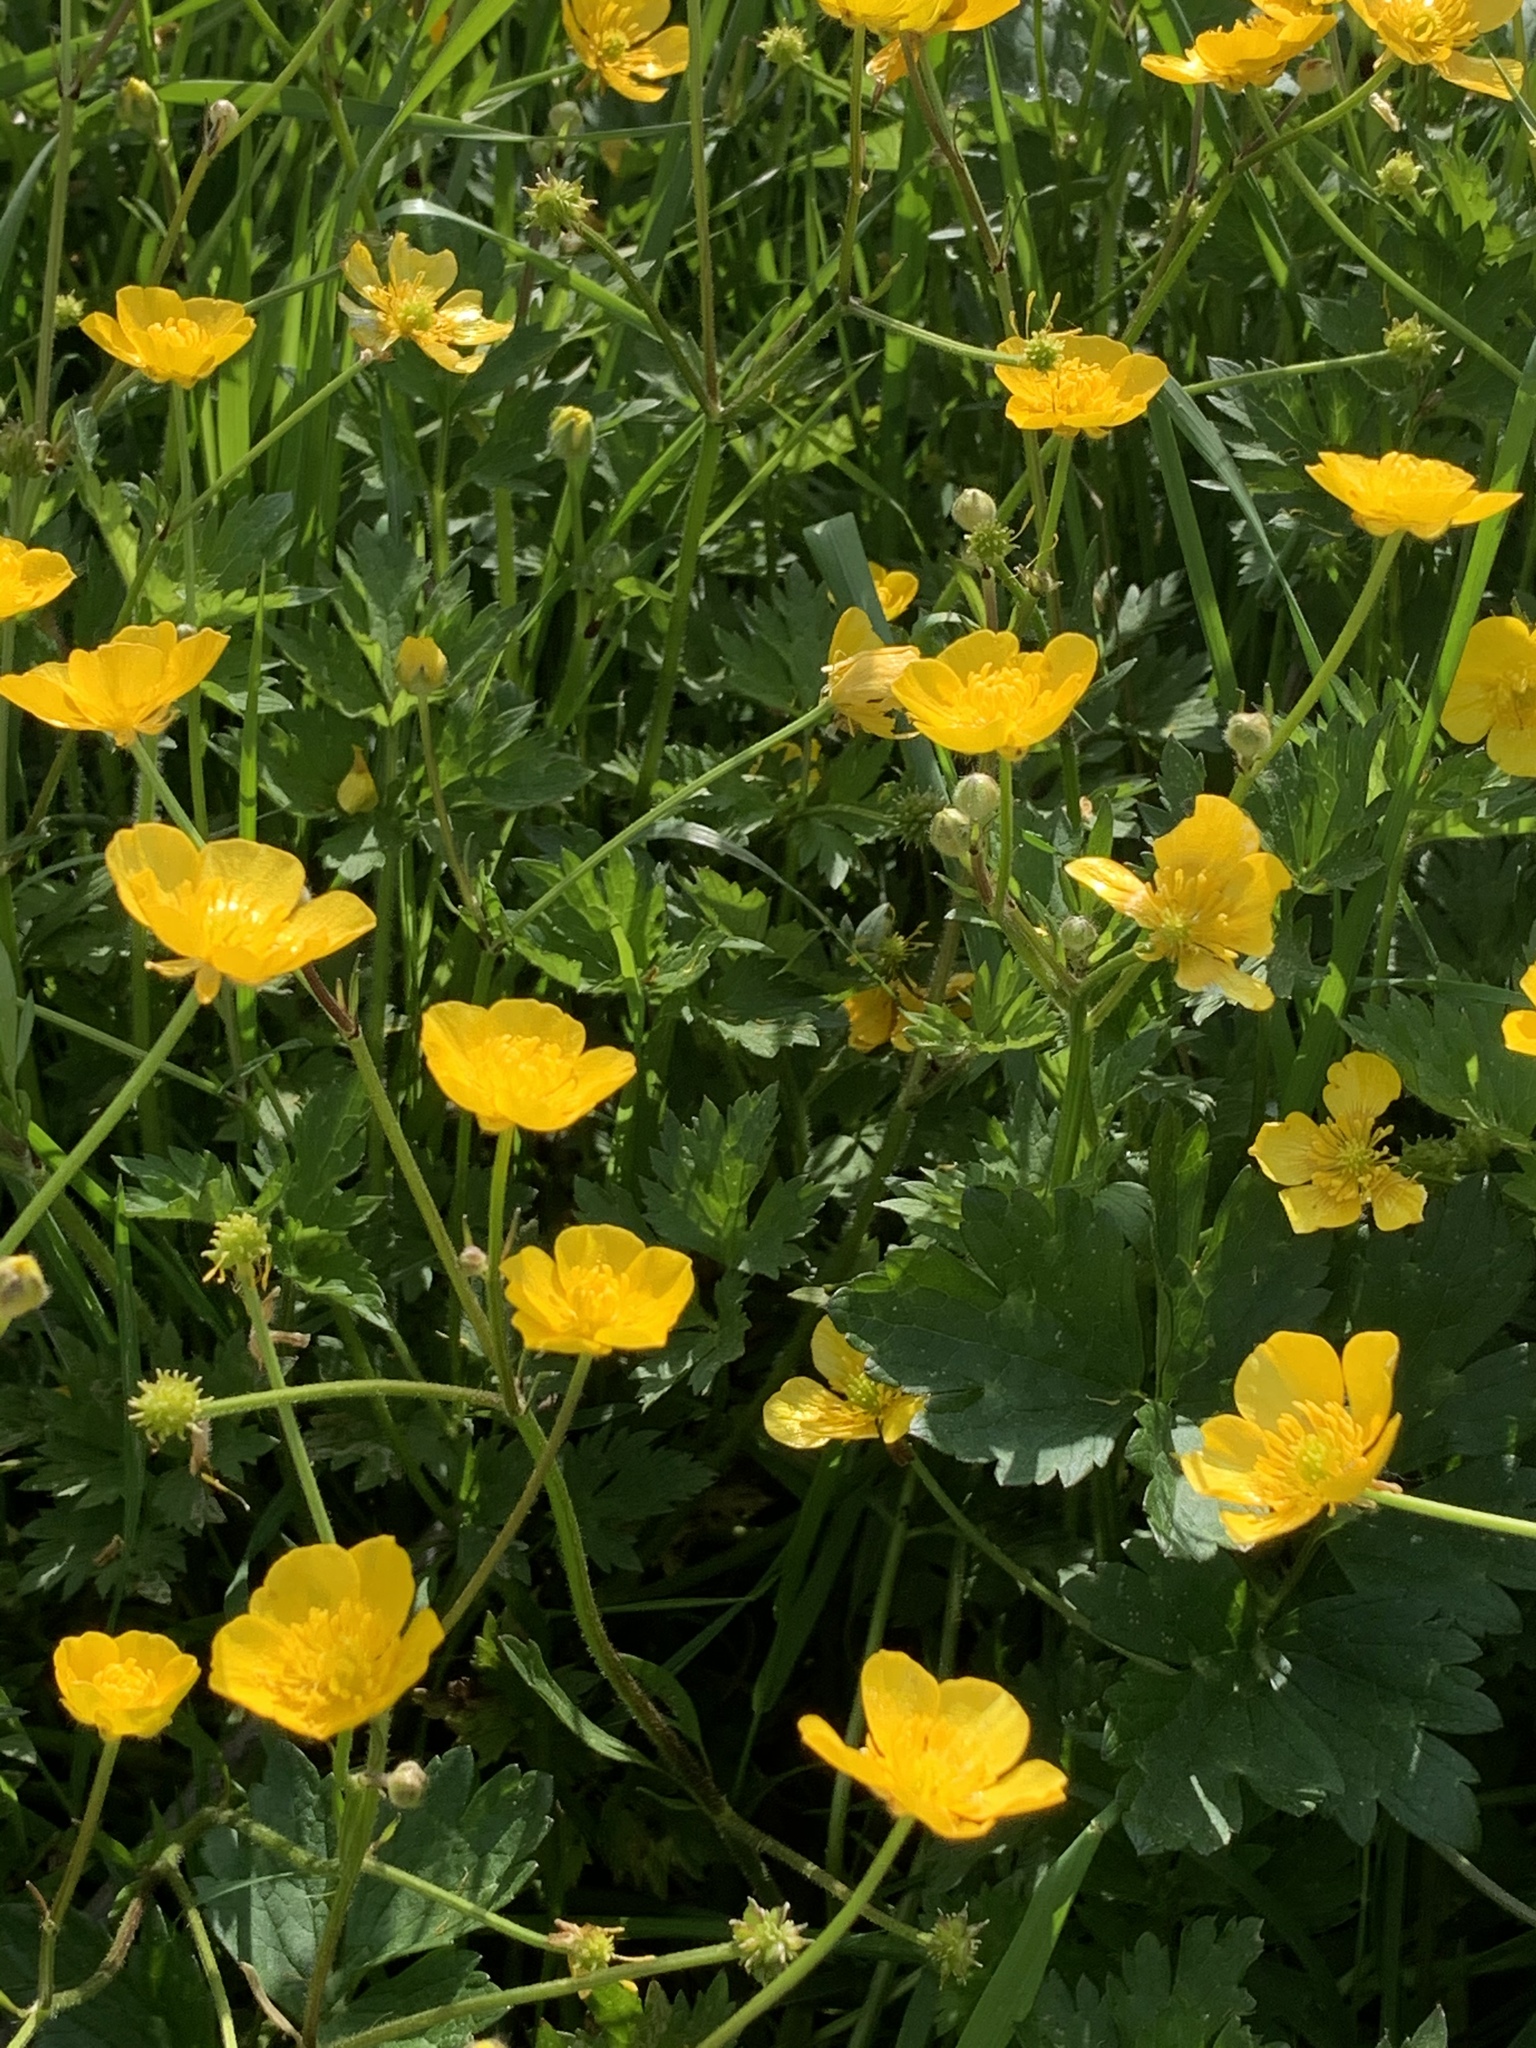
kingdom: Plantae
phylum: Tracheophyta
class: Magnoliopsida
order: Ranunculales
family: Ranunculaceae
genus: Ranunculus
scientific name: Ranunculus repens
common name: Creeping buttercup
